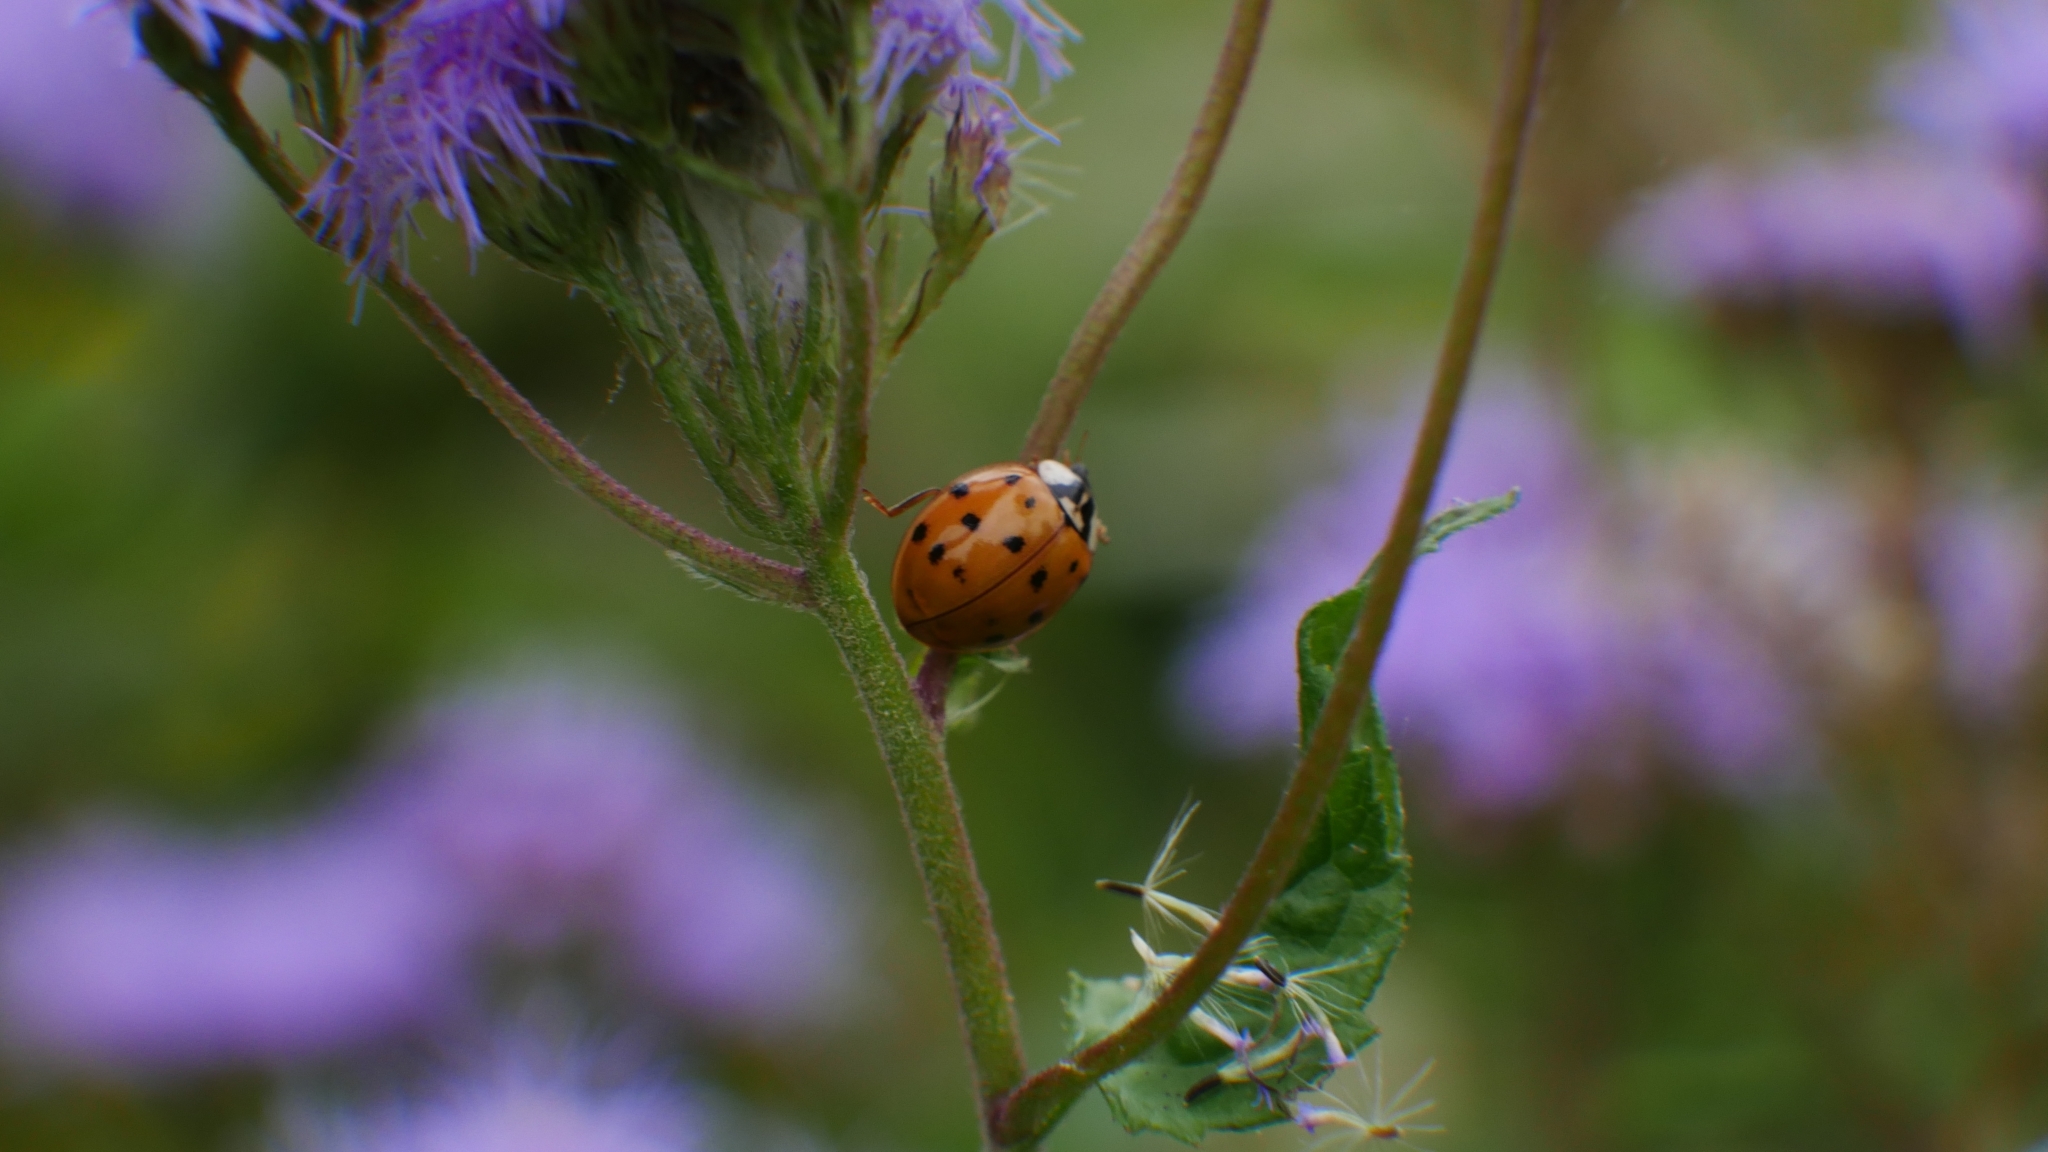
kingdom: Animalia
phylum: Arthropoda
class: Insecta
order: Coleoptera
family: Coccinellidae
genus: Harmonia
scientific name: Harmonia axyridis
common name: Harlequin ladybird
